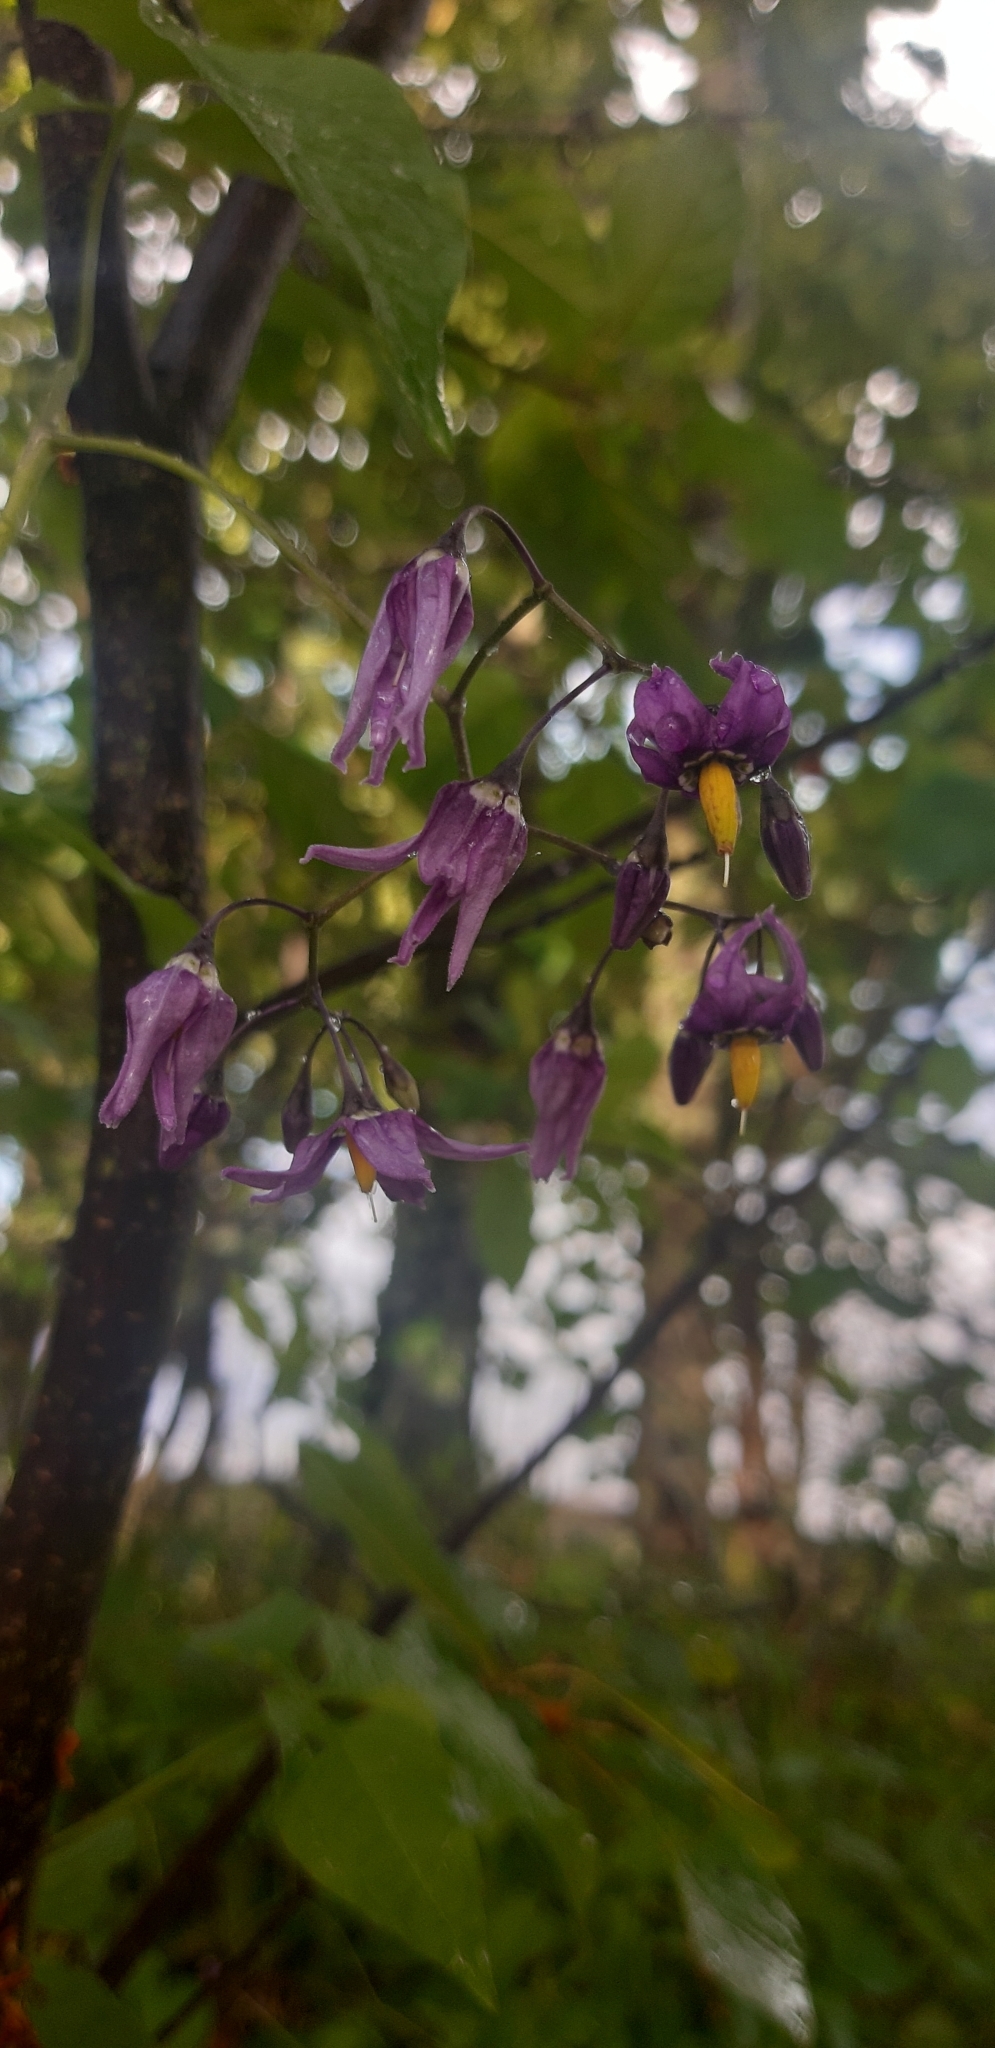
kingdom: Plantae
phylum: Tracheophyta
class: Magnoliopsida
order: Solanales
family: Solanaceae
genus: Solanum
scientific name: Solanum dulcamara
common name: Climbing nightshade
